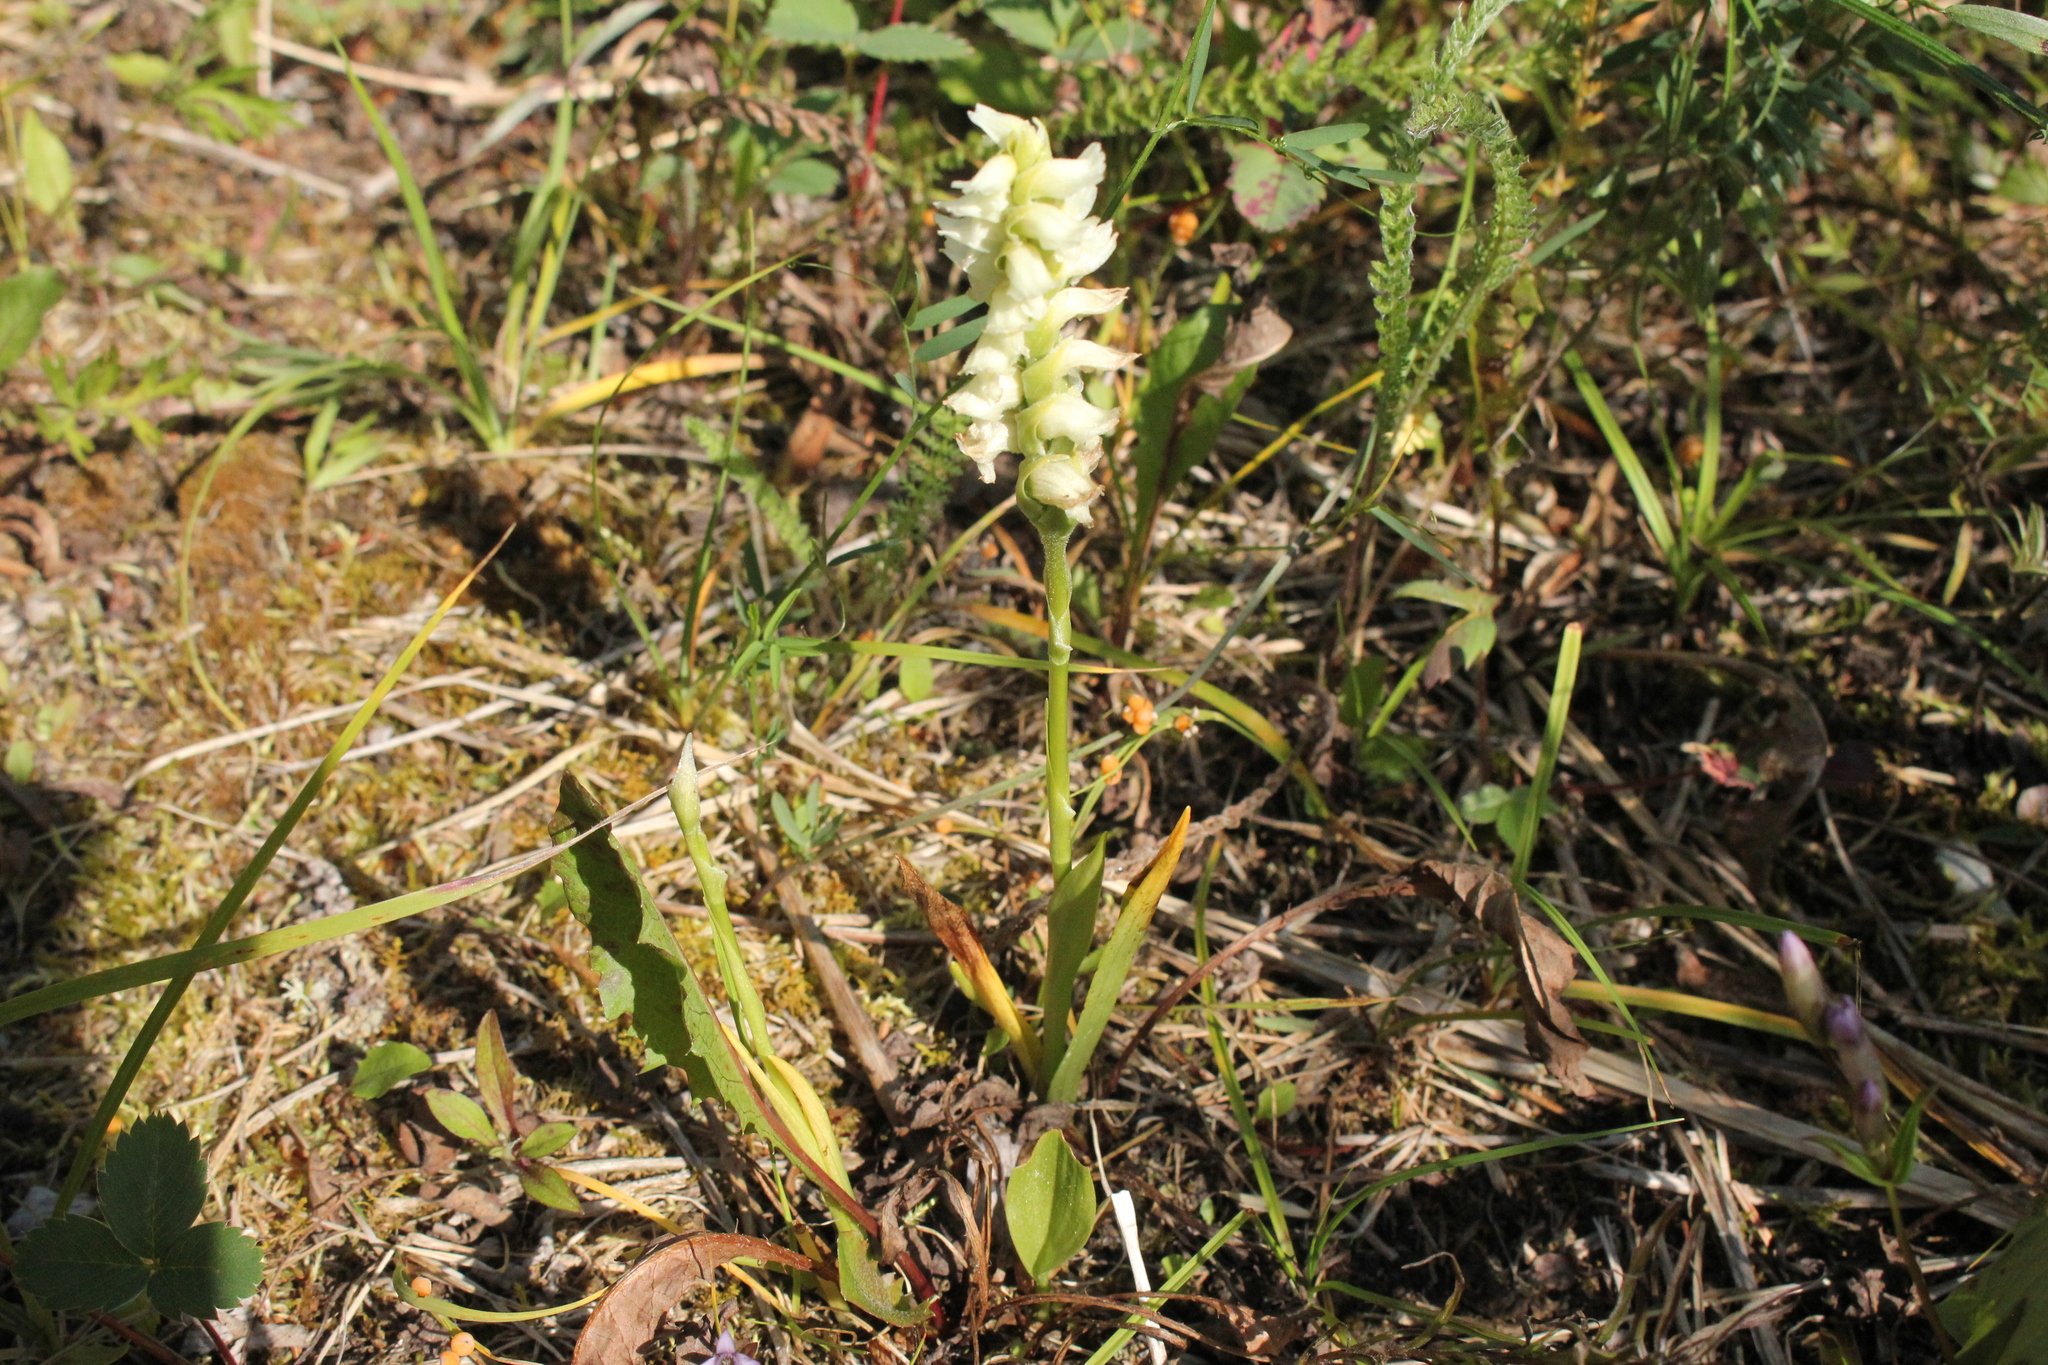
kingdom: Plantae
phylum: Tracheophyta
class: Liliopsida
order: Asparagales
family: Orchidaceae
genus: Spiranthes
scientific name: Spiranthes romanzoffiana
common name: Irish lady's-tresses
